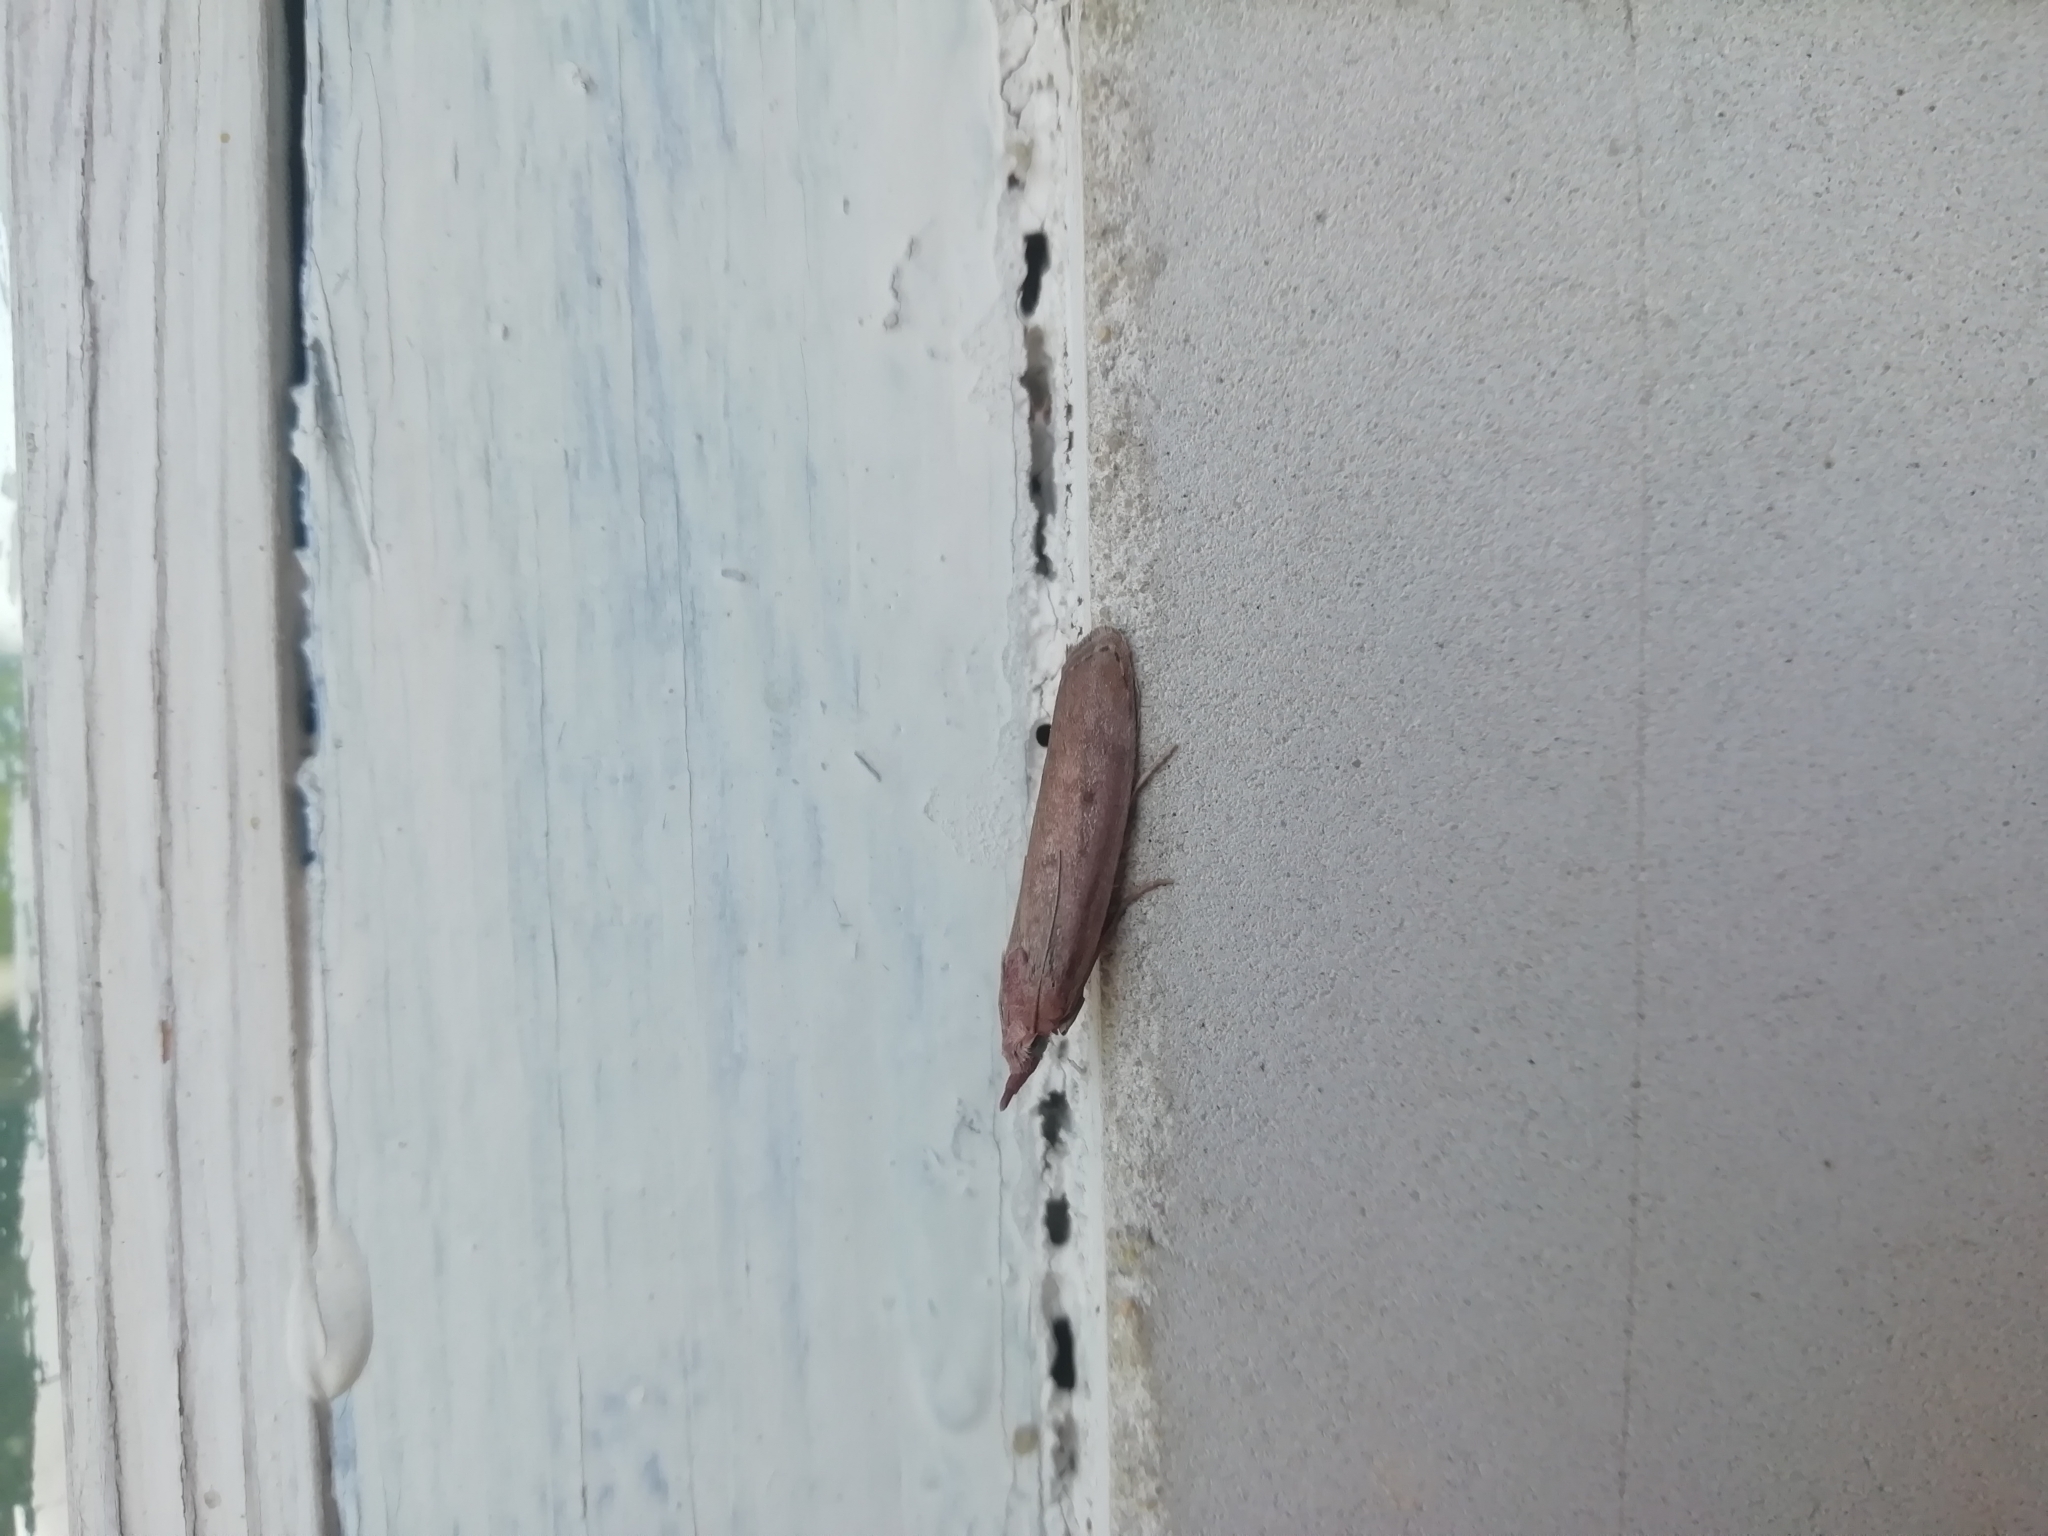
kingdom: Animalia
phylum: Arthropoda
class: Insecta
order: Lepidoptera
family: Pyralidae
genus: Aphomia
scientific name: Aphomia sociella
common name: Bee moth
